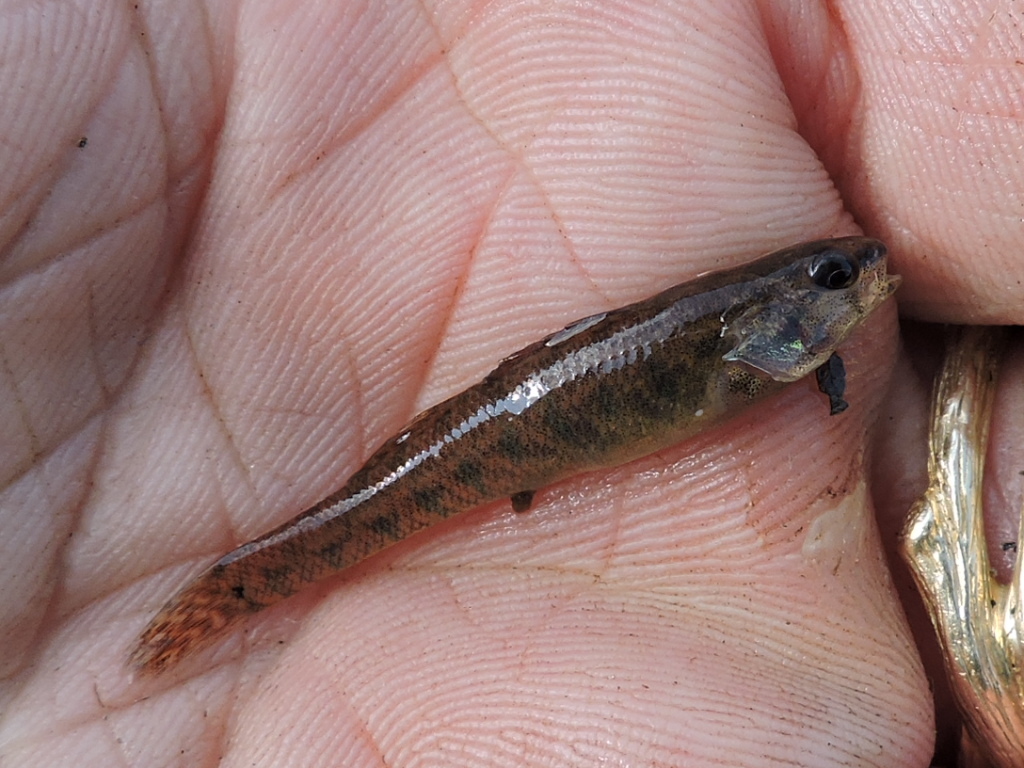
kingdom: Animalia
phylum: Chordata
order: Perciformes
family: Percidae
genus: Etheostoma
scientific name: Etheostoma gracile
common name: Slough darter
